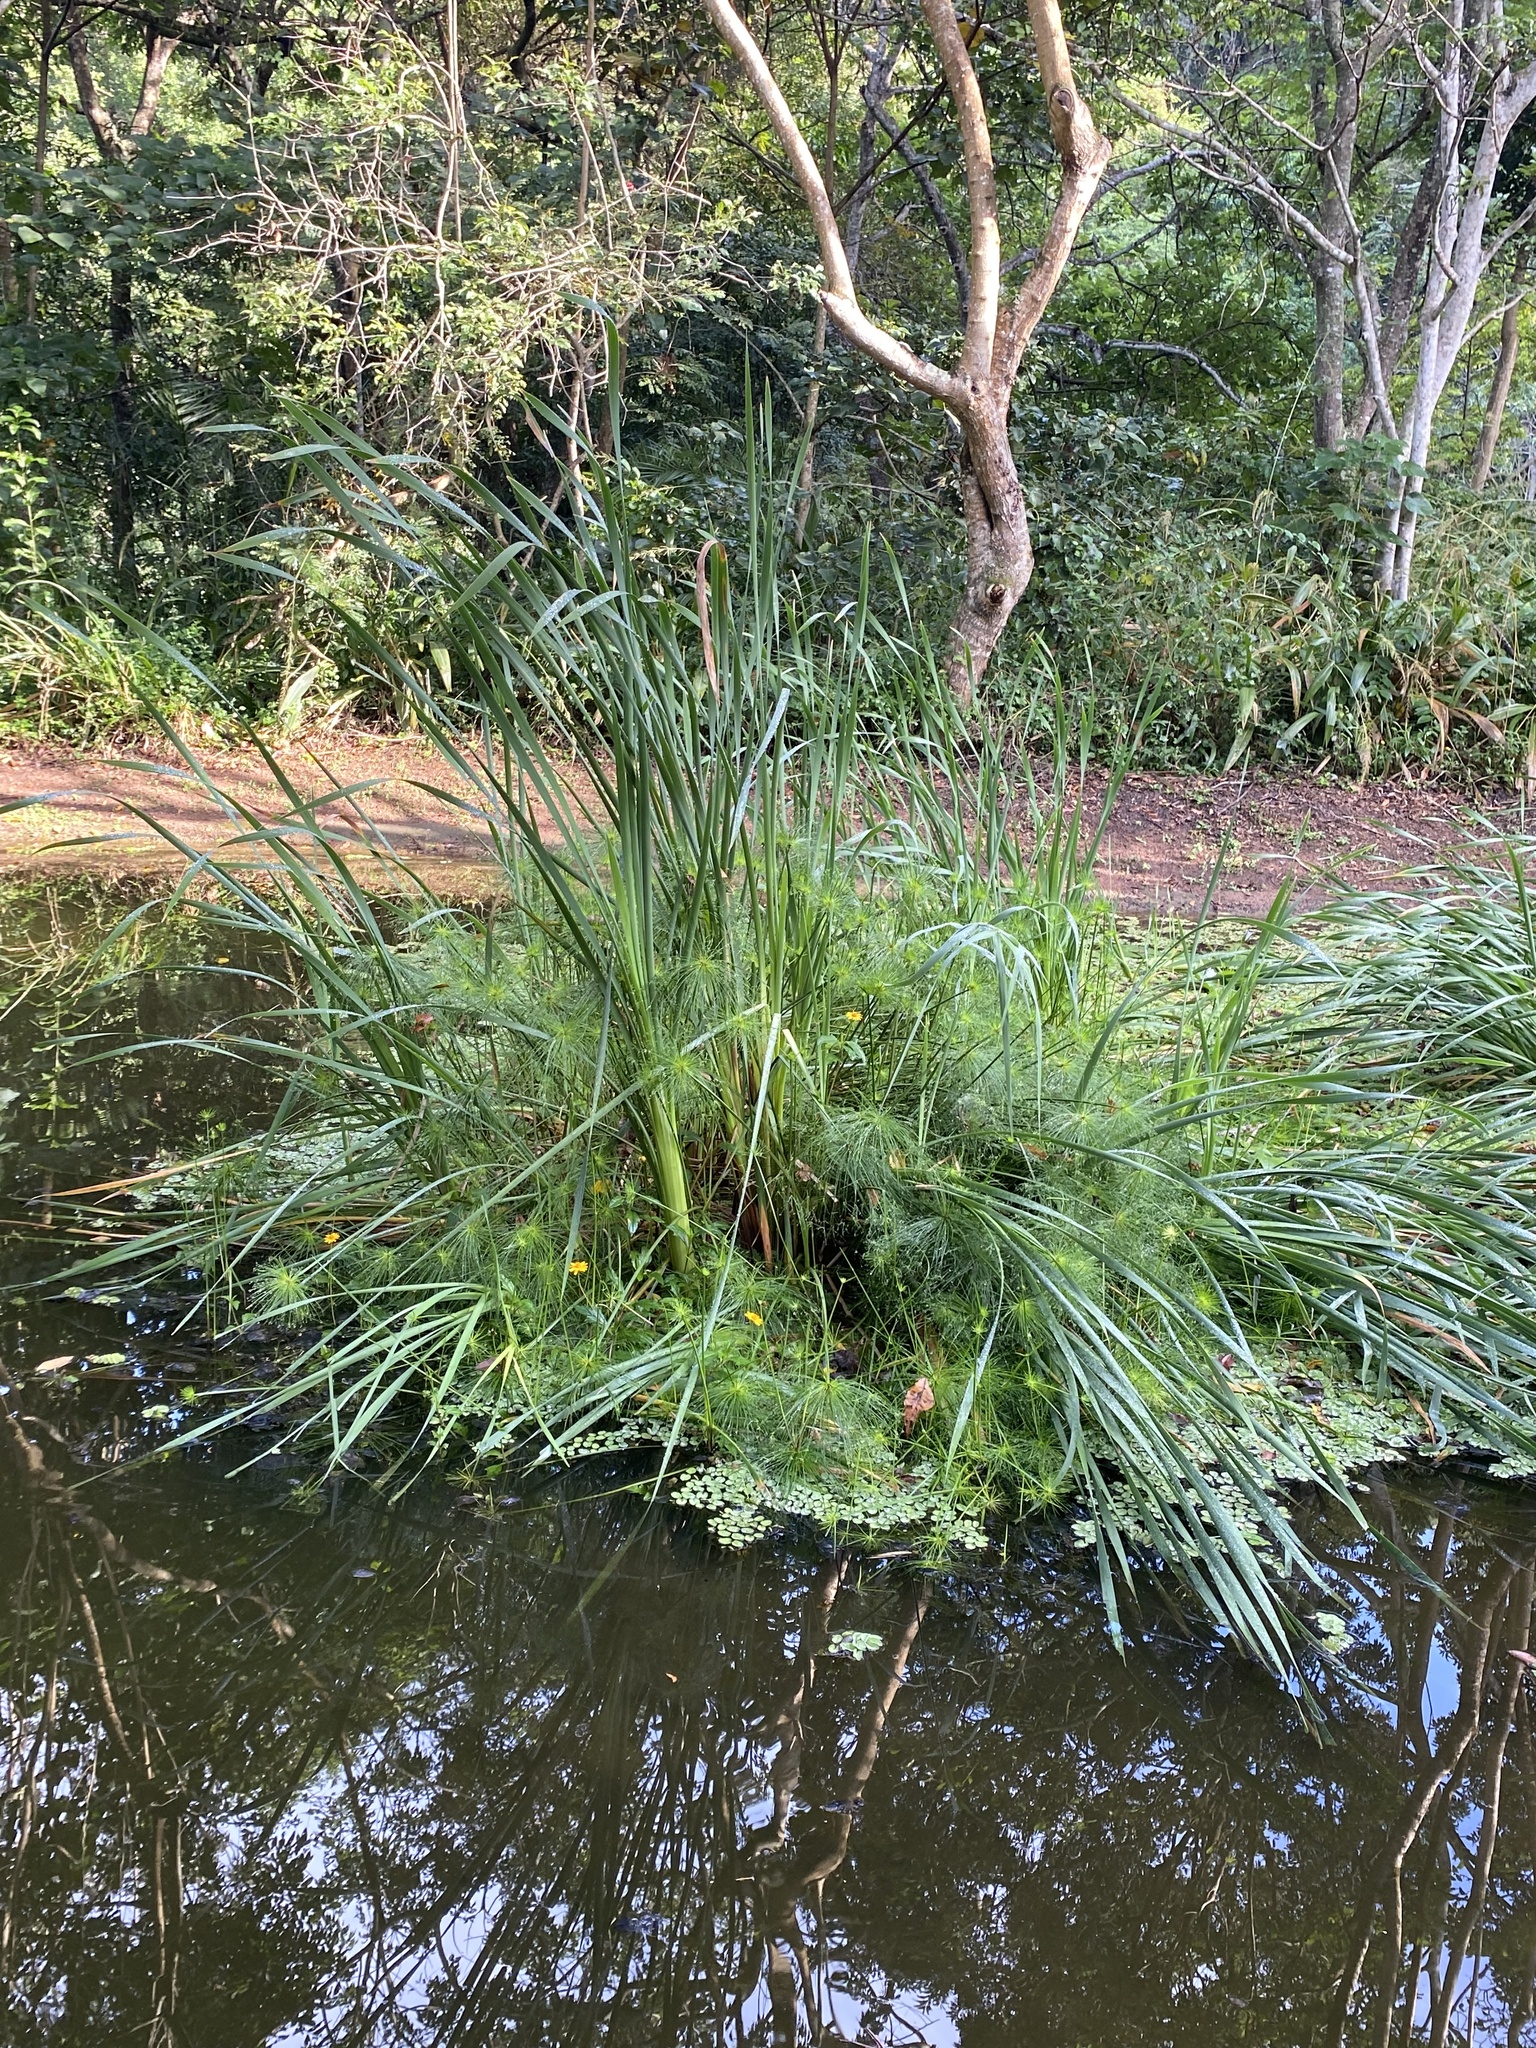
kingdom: Plantae
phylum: Tracheophyta
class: Liliopsida
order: Poales
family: Typhaceae
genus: Typha
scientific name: Typha capensis
